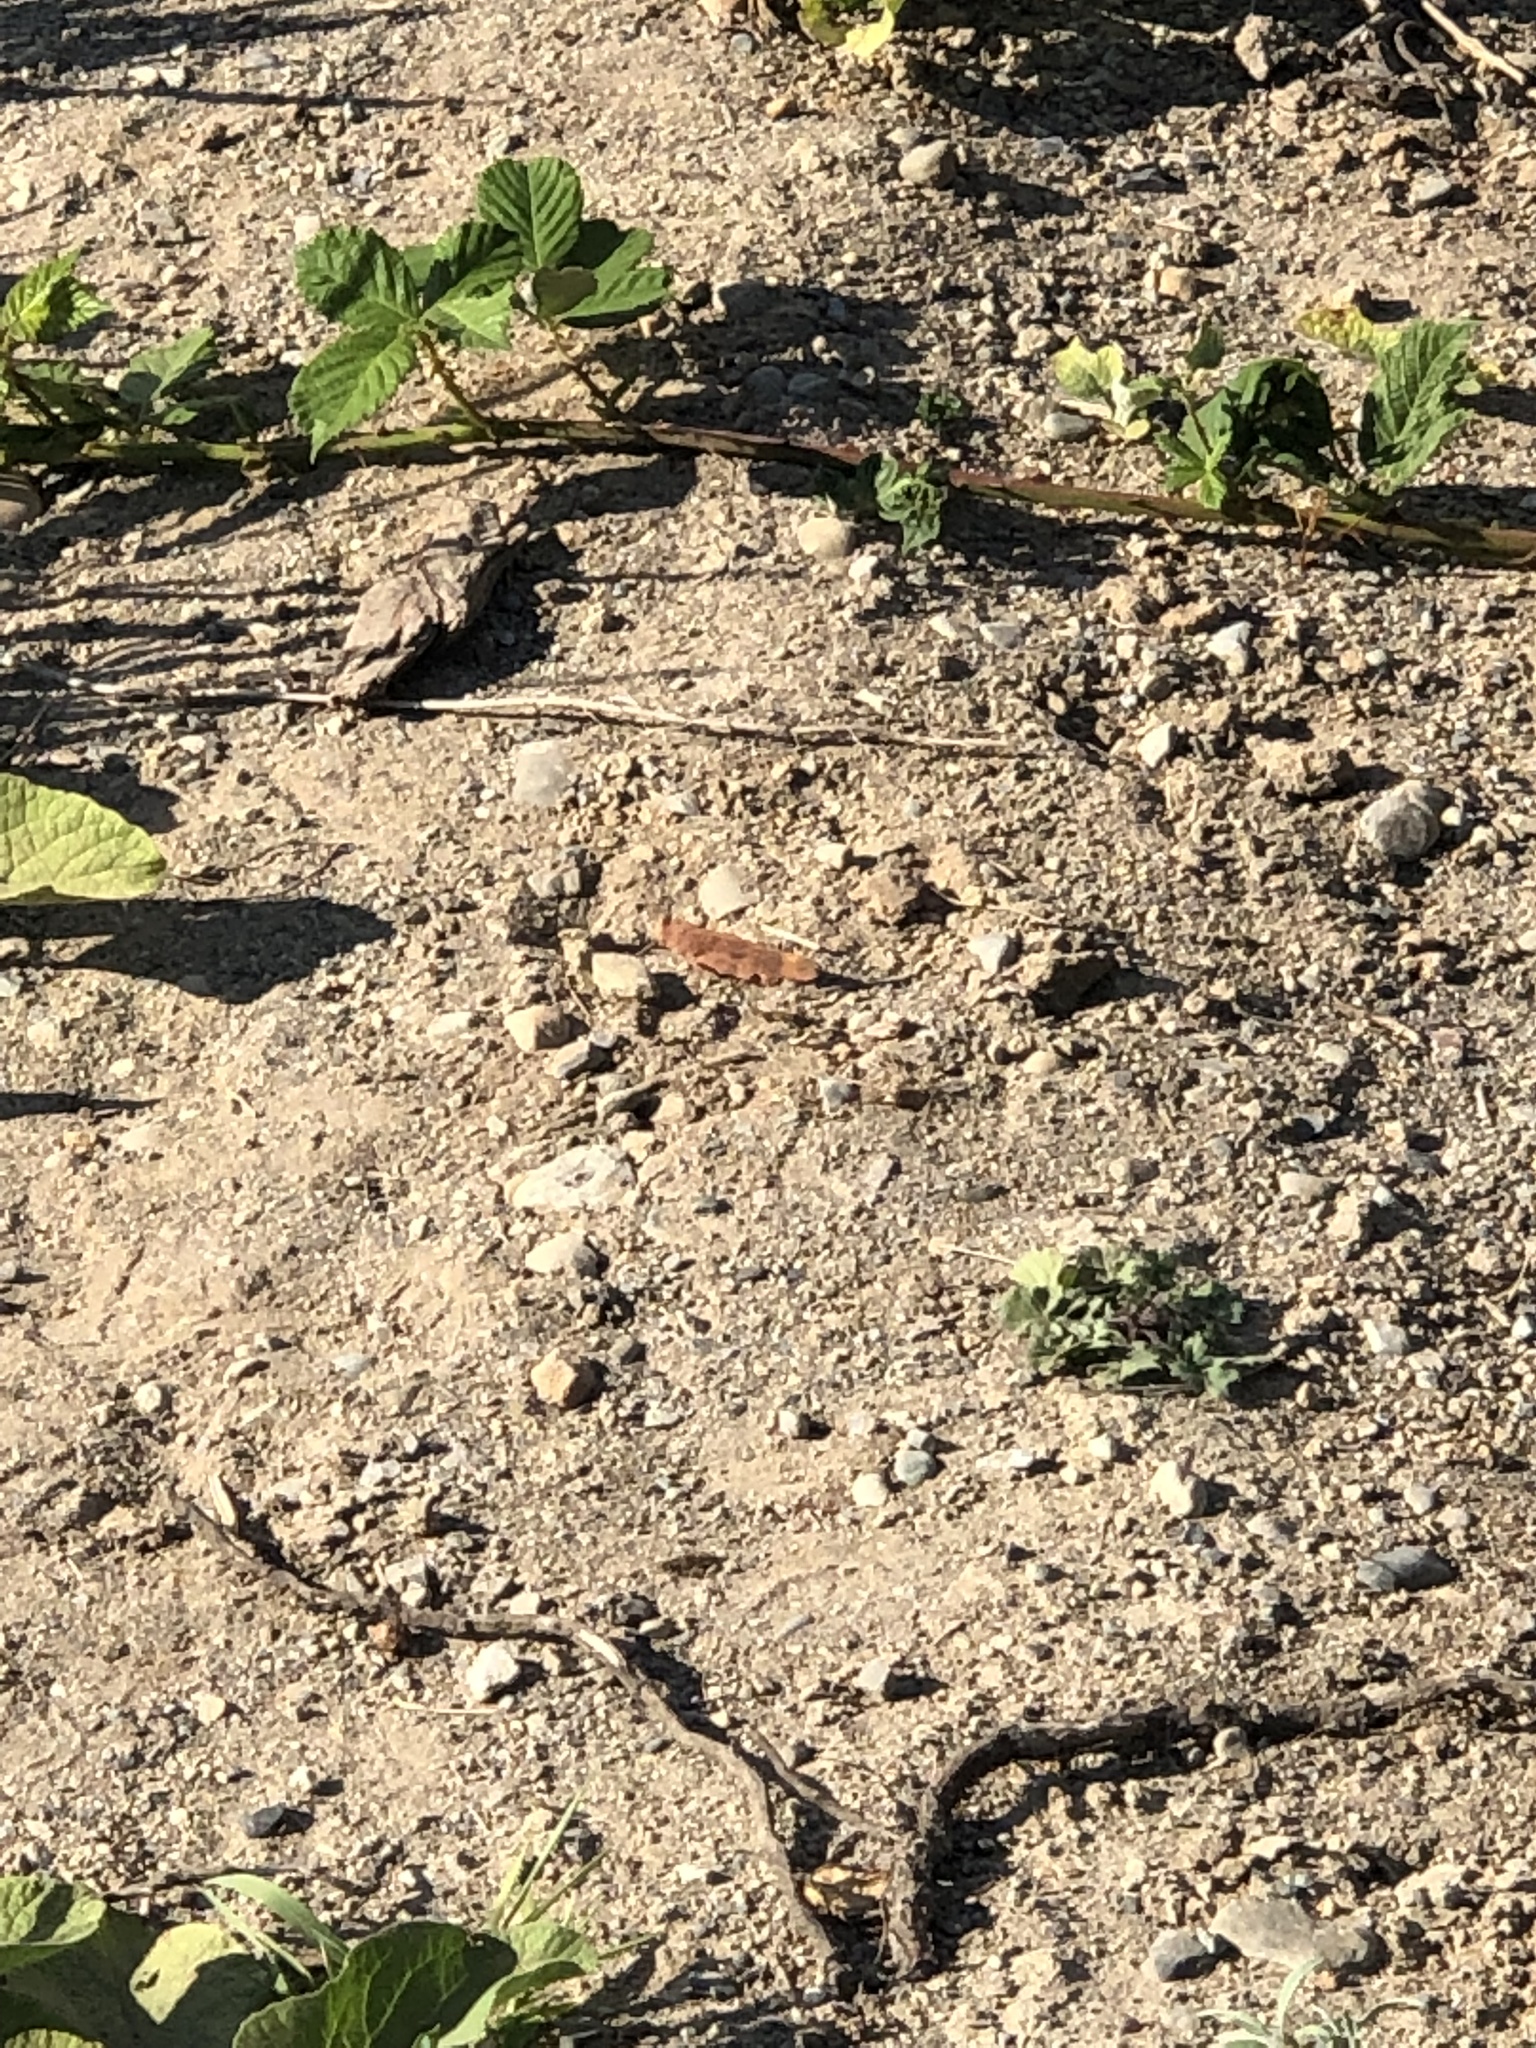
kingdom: Animalia
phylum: Arthropoda
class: Insecta
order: Orthoptera
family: Acrididae
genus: Dissosteira
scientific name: Dissosteira carolina
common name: Carolina grasshopper
